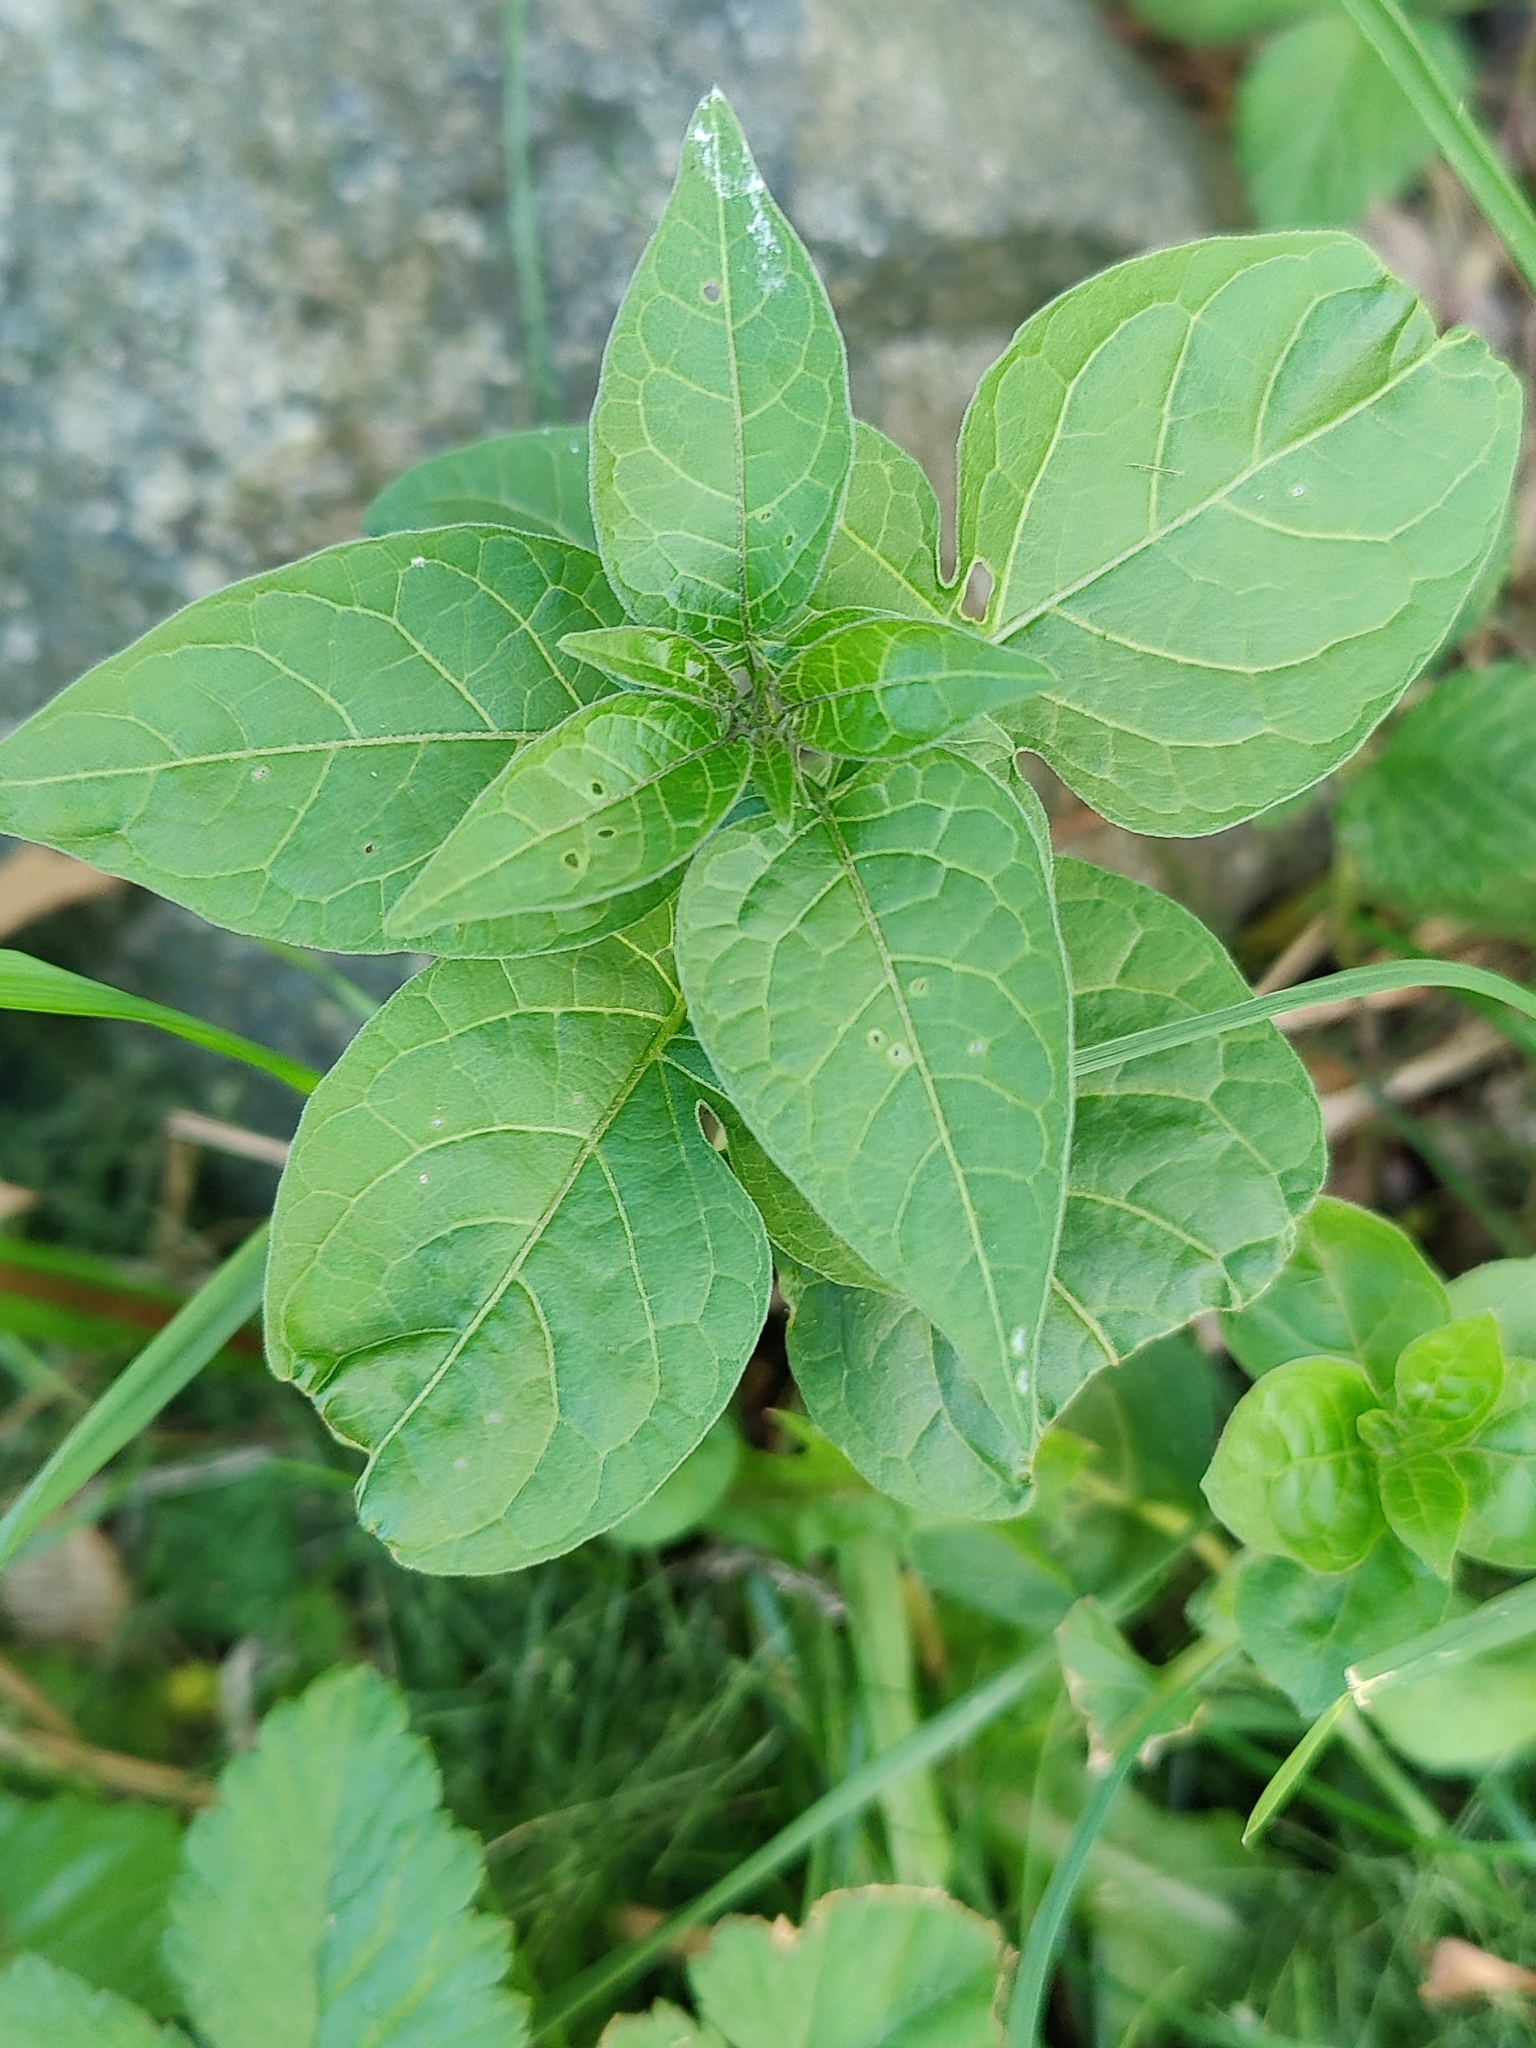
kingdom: Plantae
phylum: Tracheophyta
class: Magnoliopsida
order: Solanales
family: Solanaceae
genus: Solanum
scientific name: Solanum dulcamara
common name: Climbing nightshade
